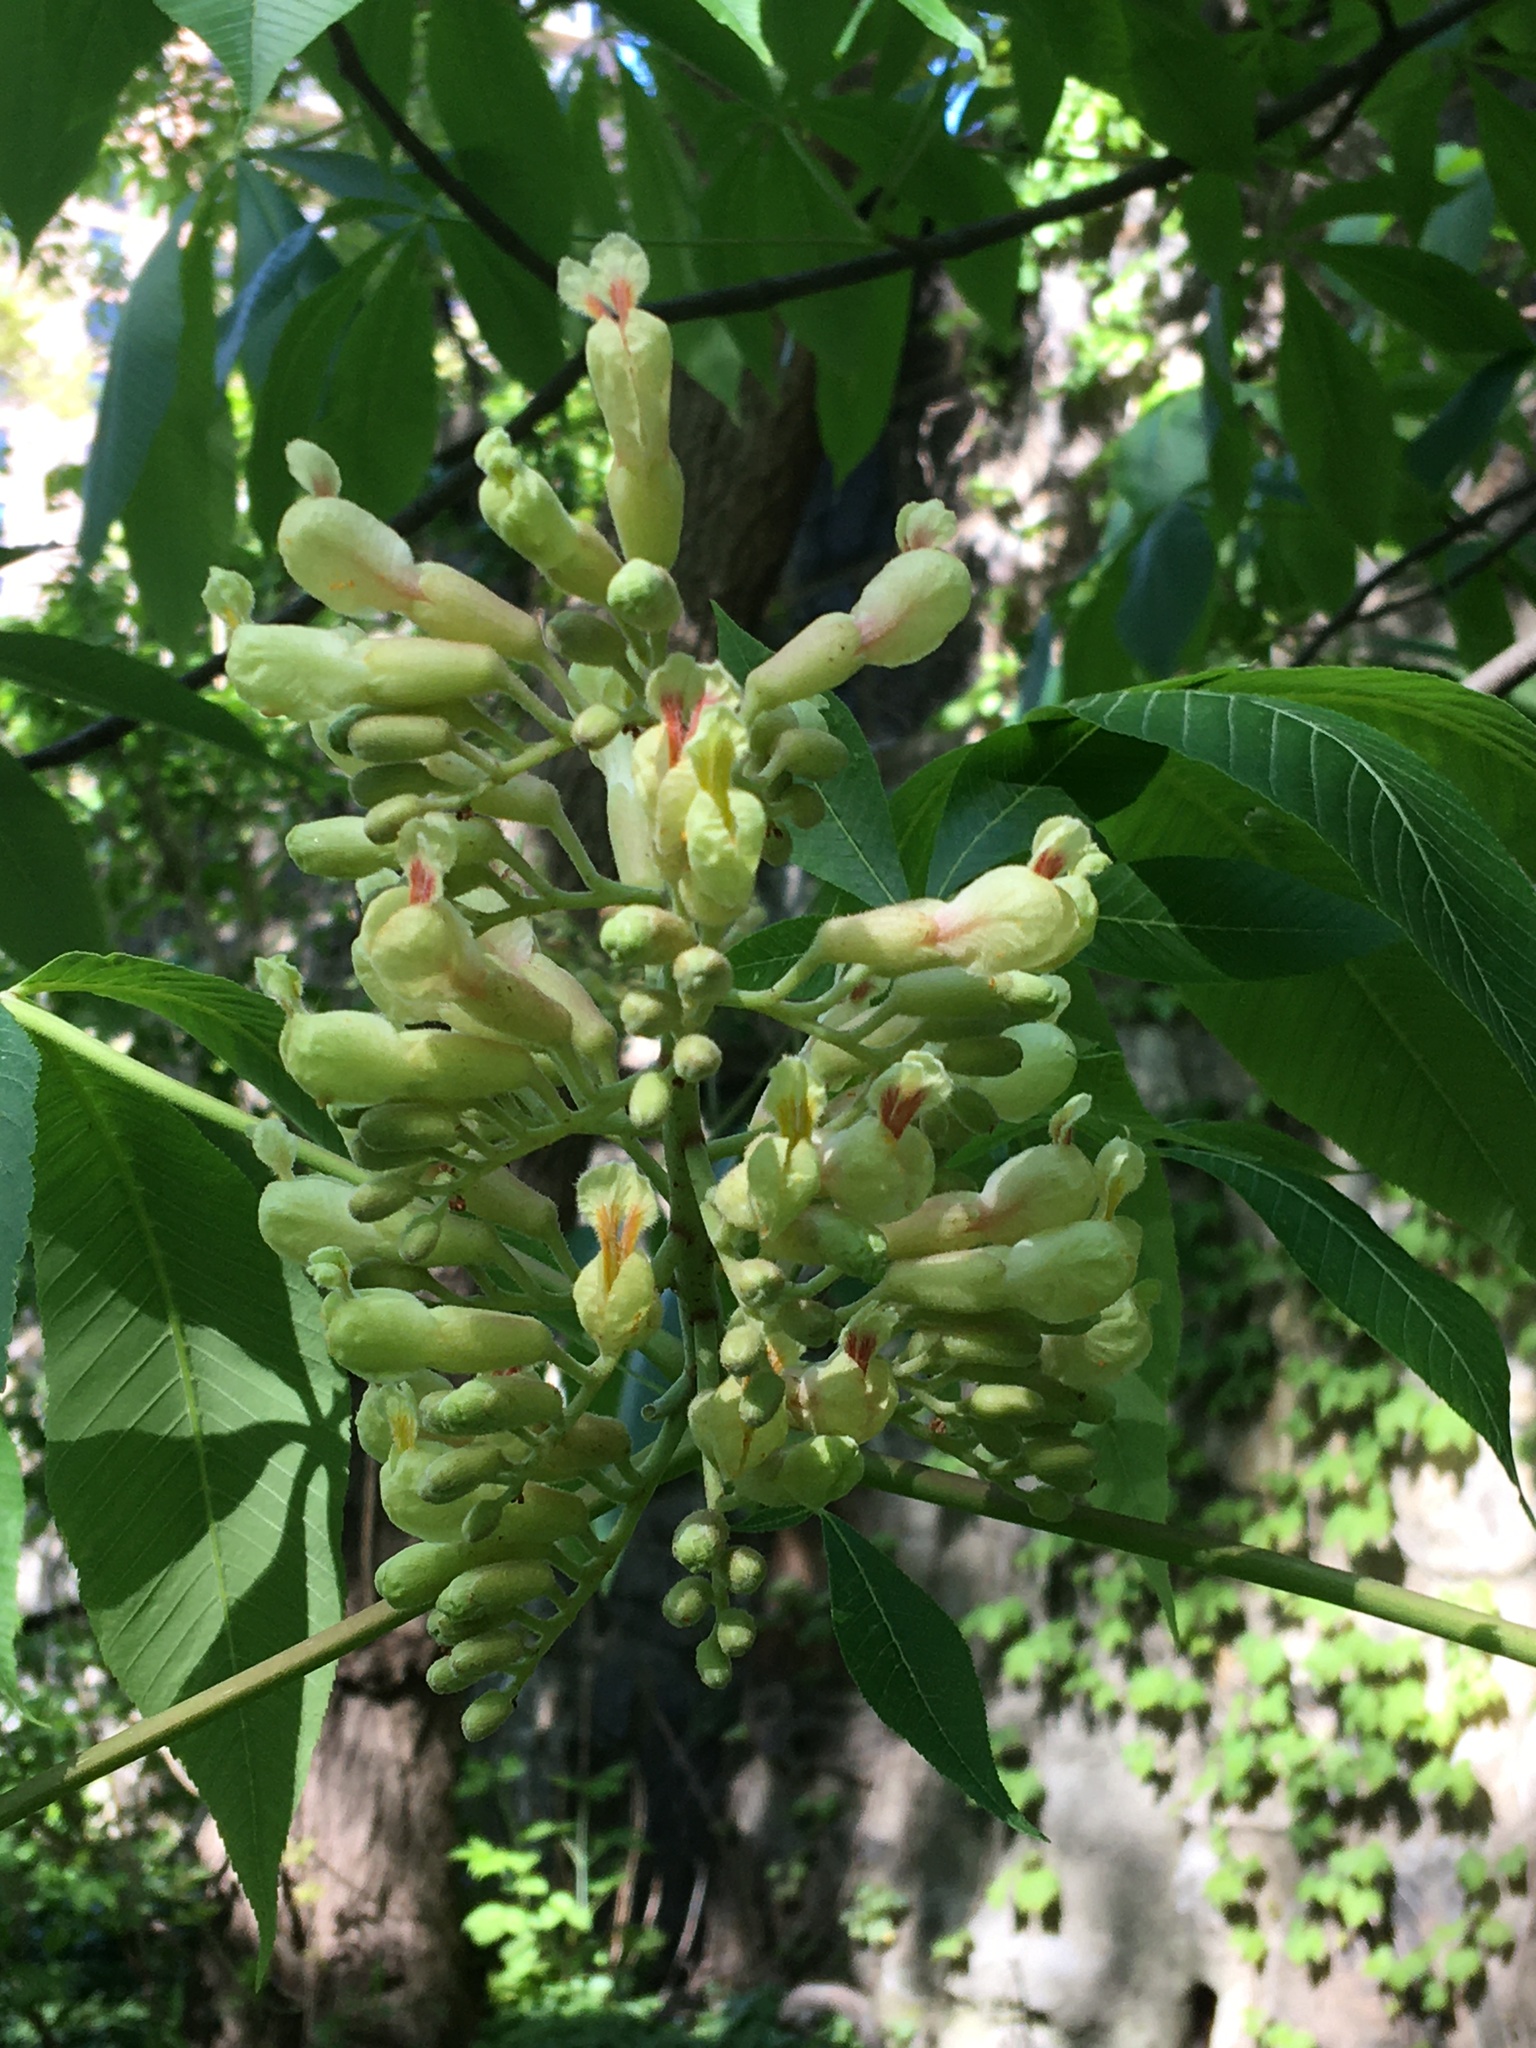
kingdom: Plantae
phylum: Tracheophyta
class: Magnoliopsida
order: Sapindales
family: Sapindaceae
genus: Aesculus
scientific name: Aesculus flava
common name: Yellow buckeye
